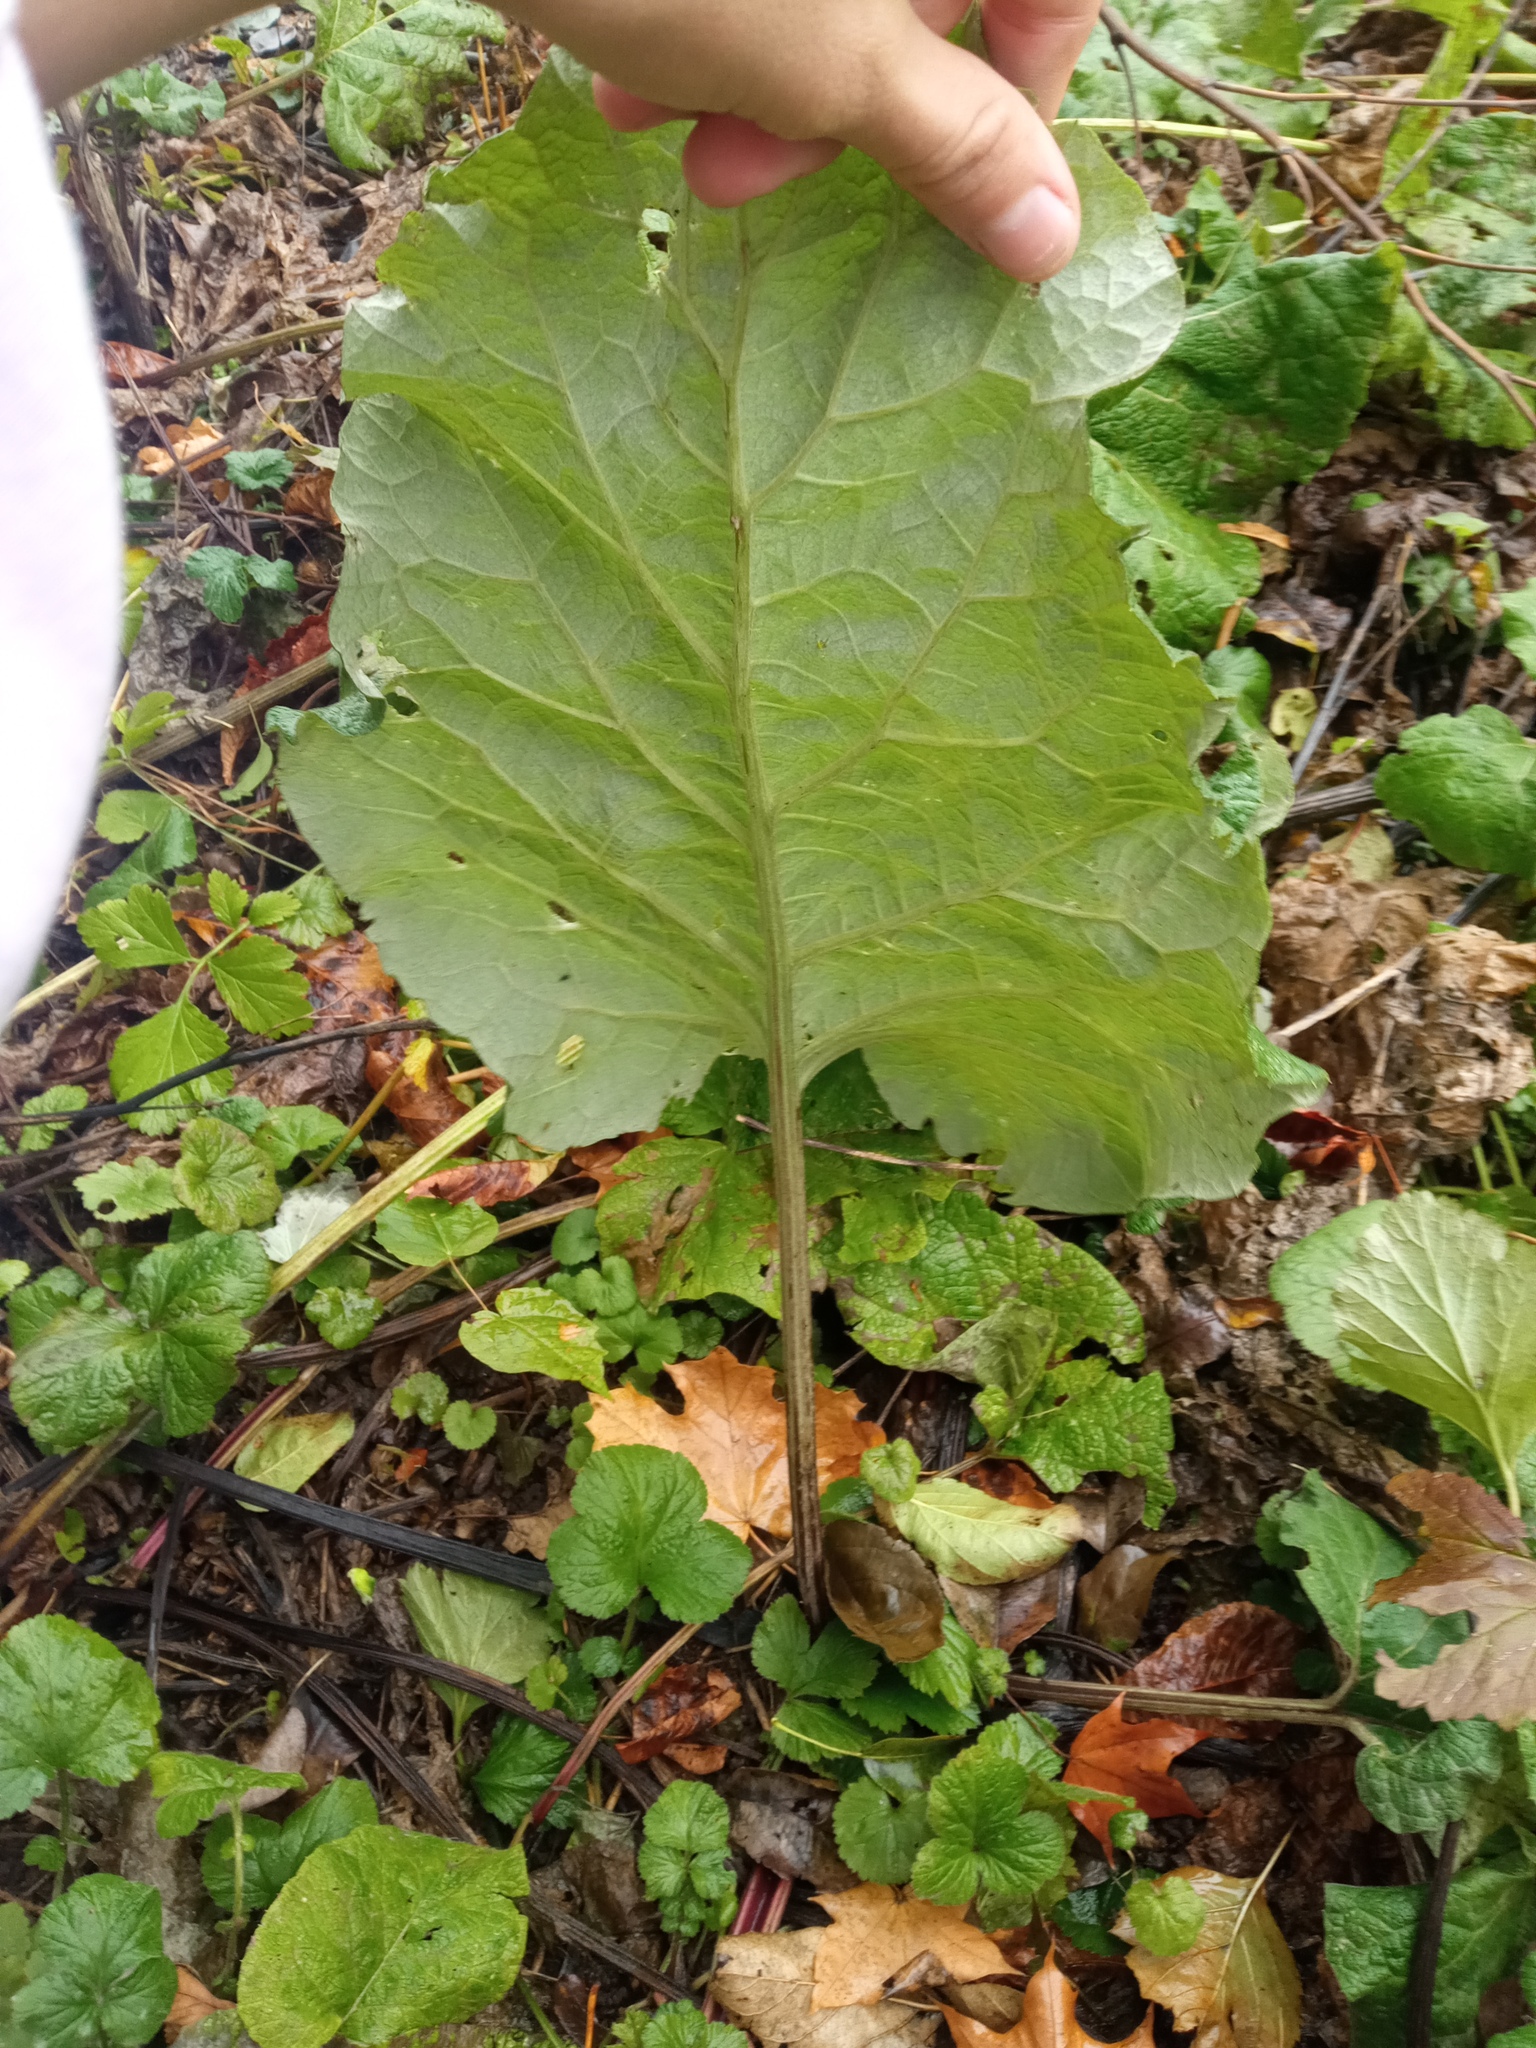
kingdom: Plantae
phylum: Tracheophyta
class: Magnoliopsida
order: Asterales
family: Asteraceae
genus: Arctium
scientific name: Arctium tomentosum
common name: Woolly burdock
